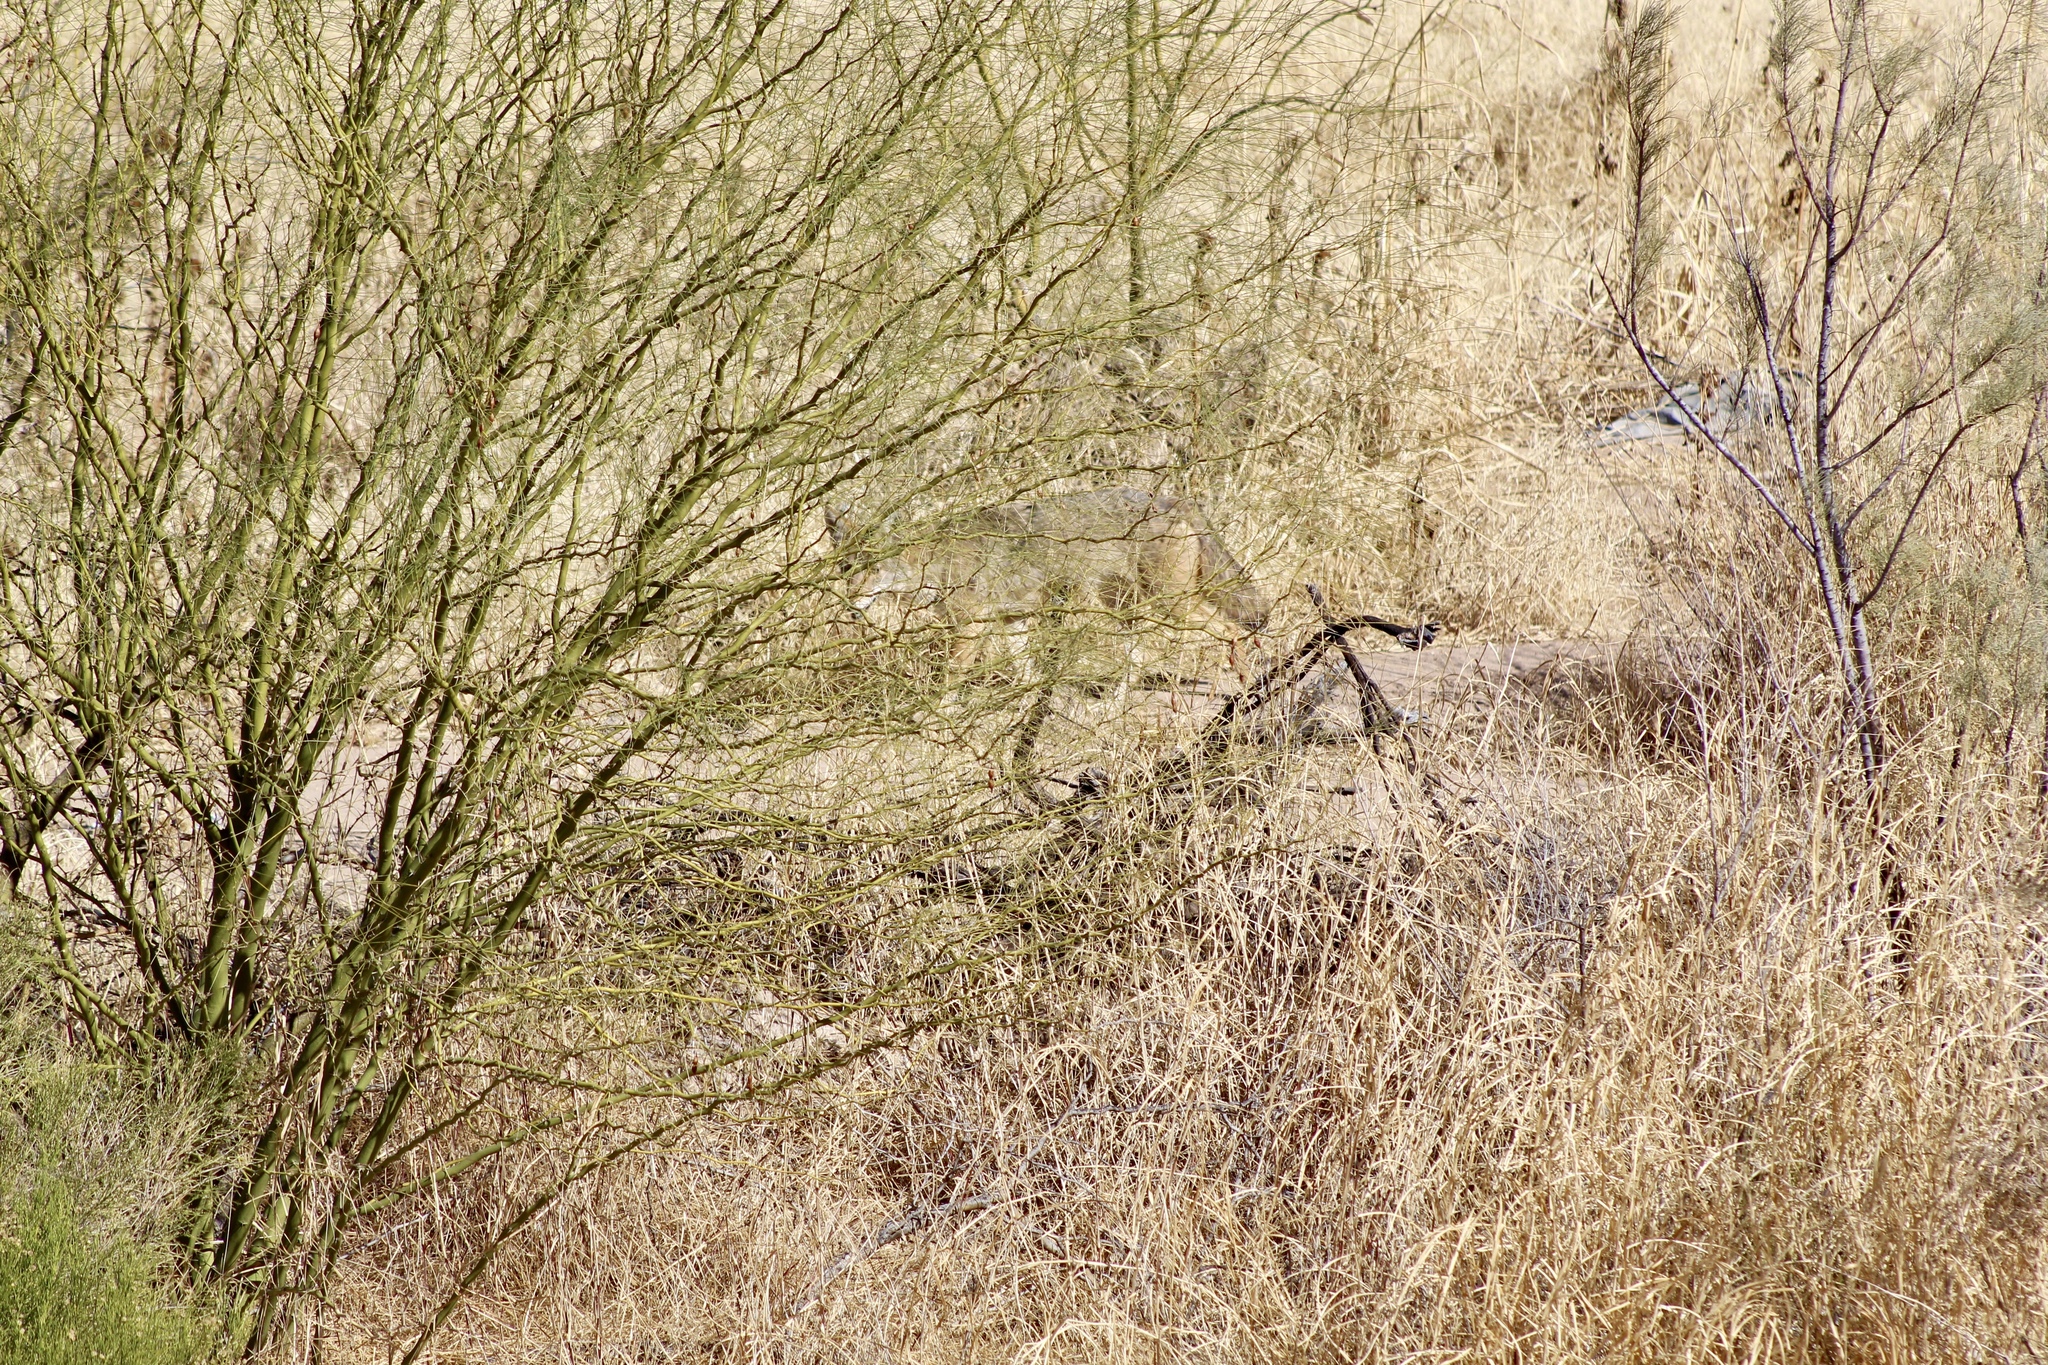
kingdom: Animalia
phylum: Chordata
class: Mammalia
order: Carnivora
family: Canidae
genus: Canis
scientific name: Canis latrans
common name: Coyote
